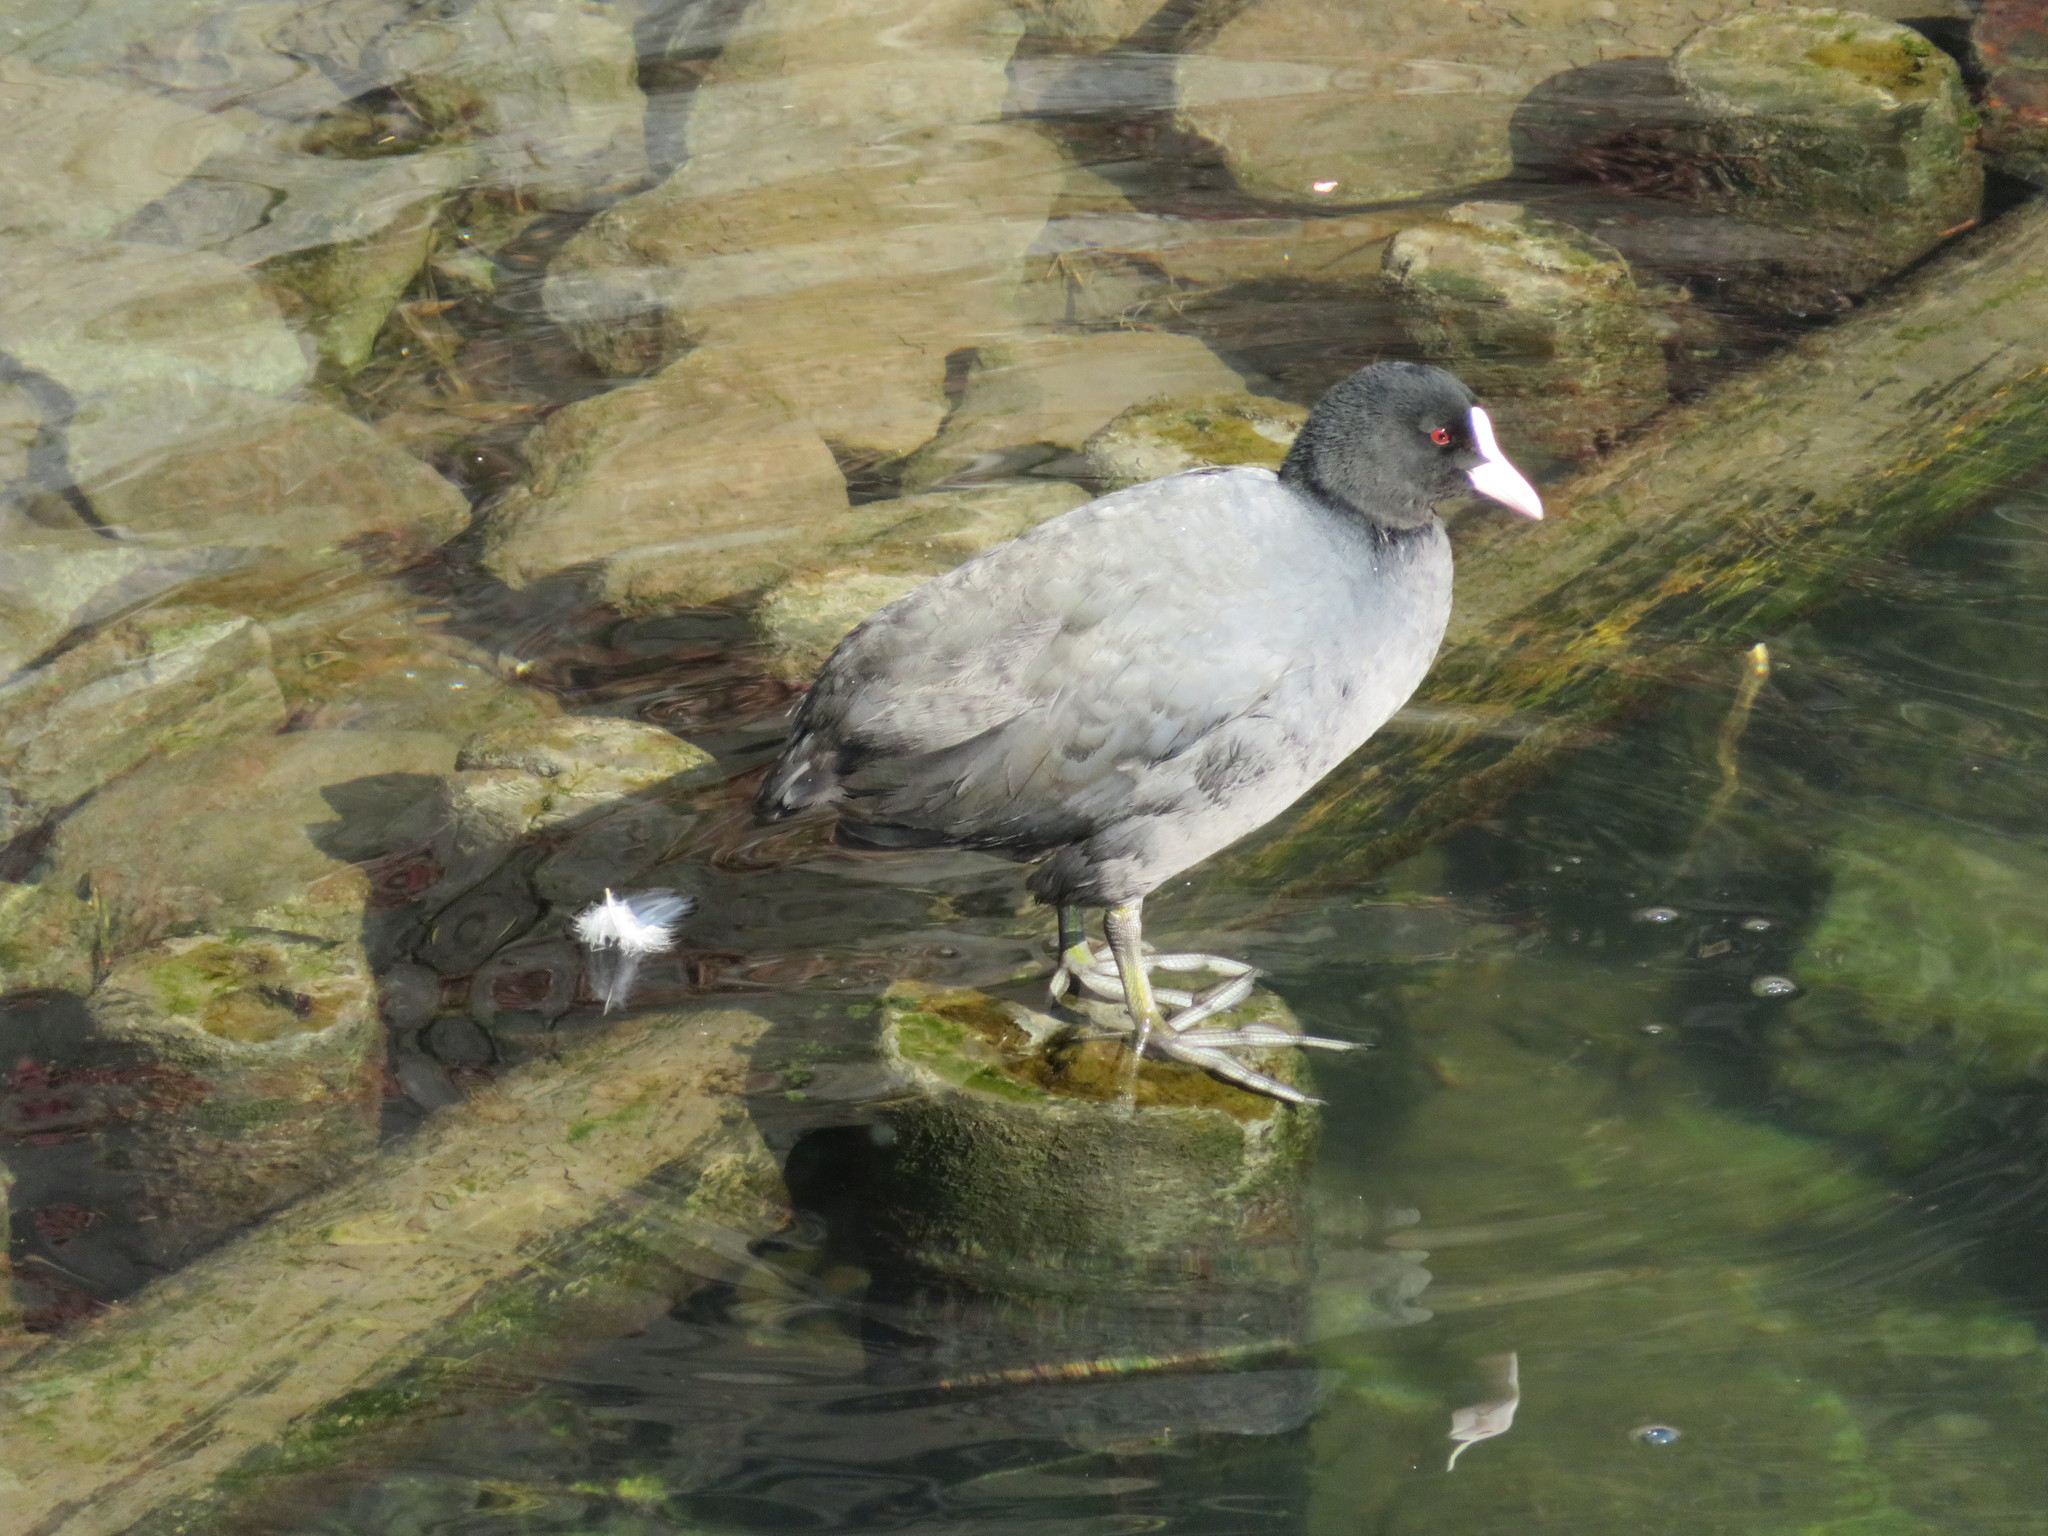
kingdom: Animalia
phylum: Chordata
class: Aves
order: Gruiformes
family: Rallidae
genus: Fulica
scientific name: Fulica atra
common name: Eurasian coot
